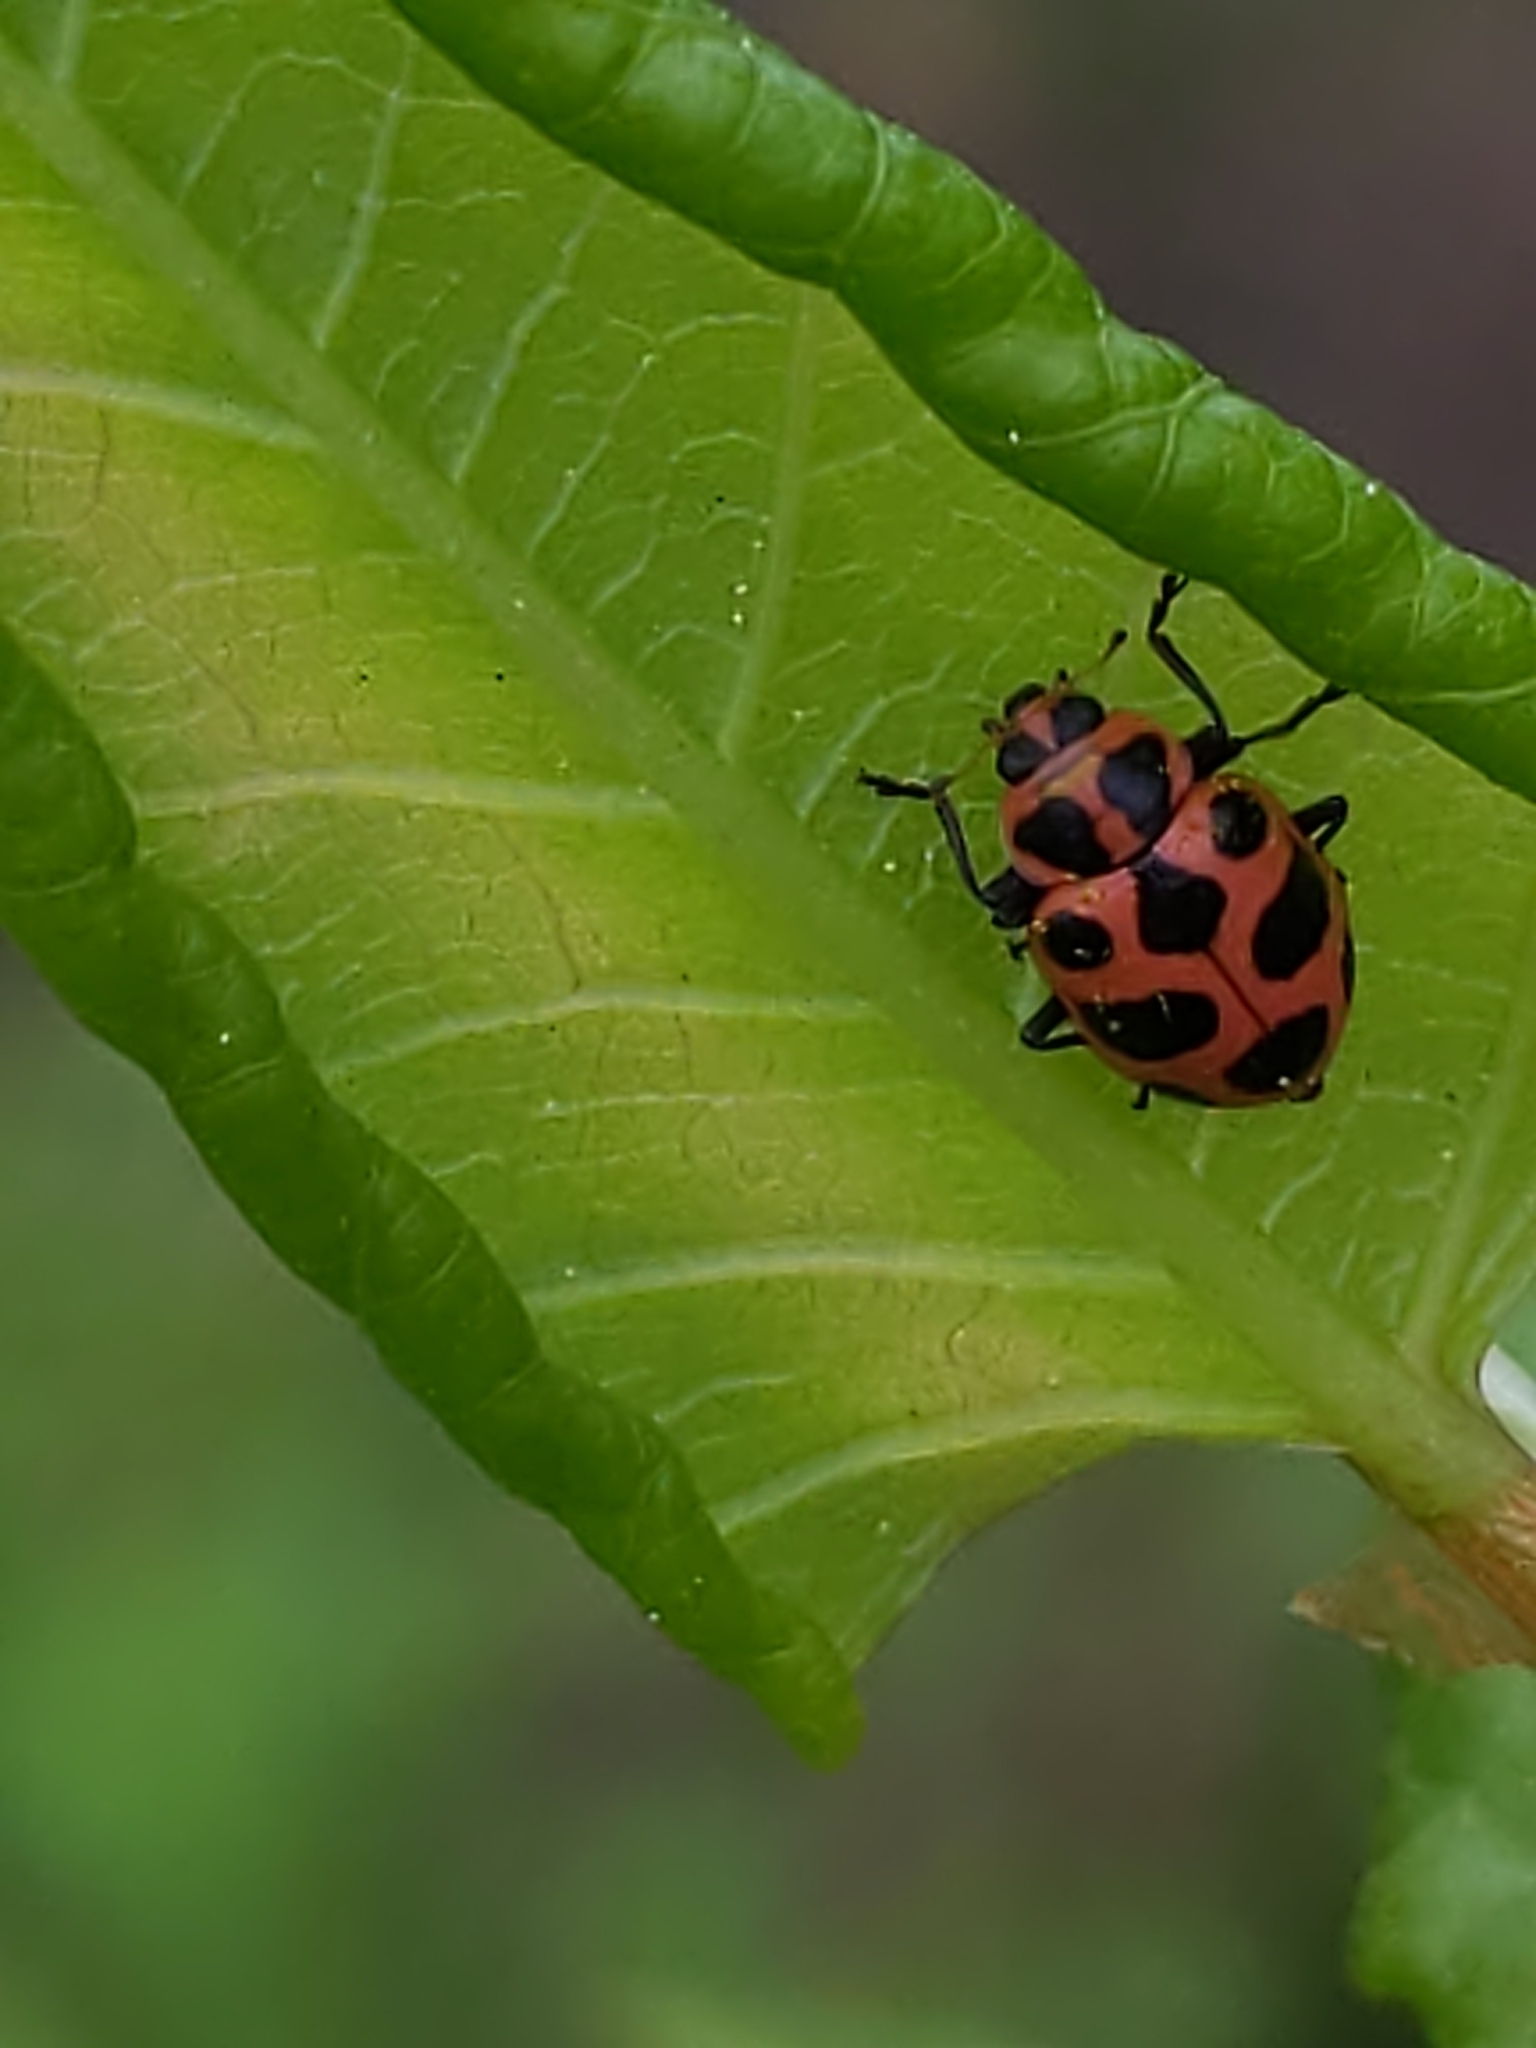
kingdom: Animalia
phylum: Arthropoda
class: Insecta
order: Coleoptera
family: Coccinellidae
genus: Coleomegilla
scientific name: Coleomegilla maculata
